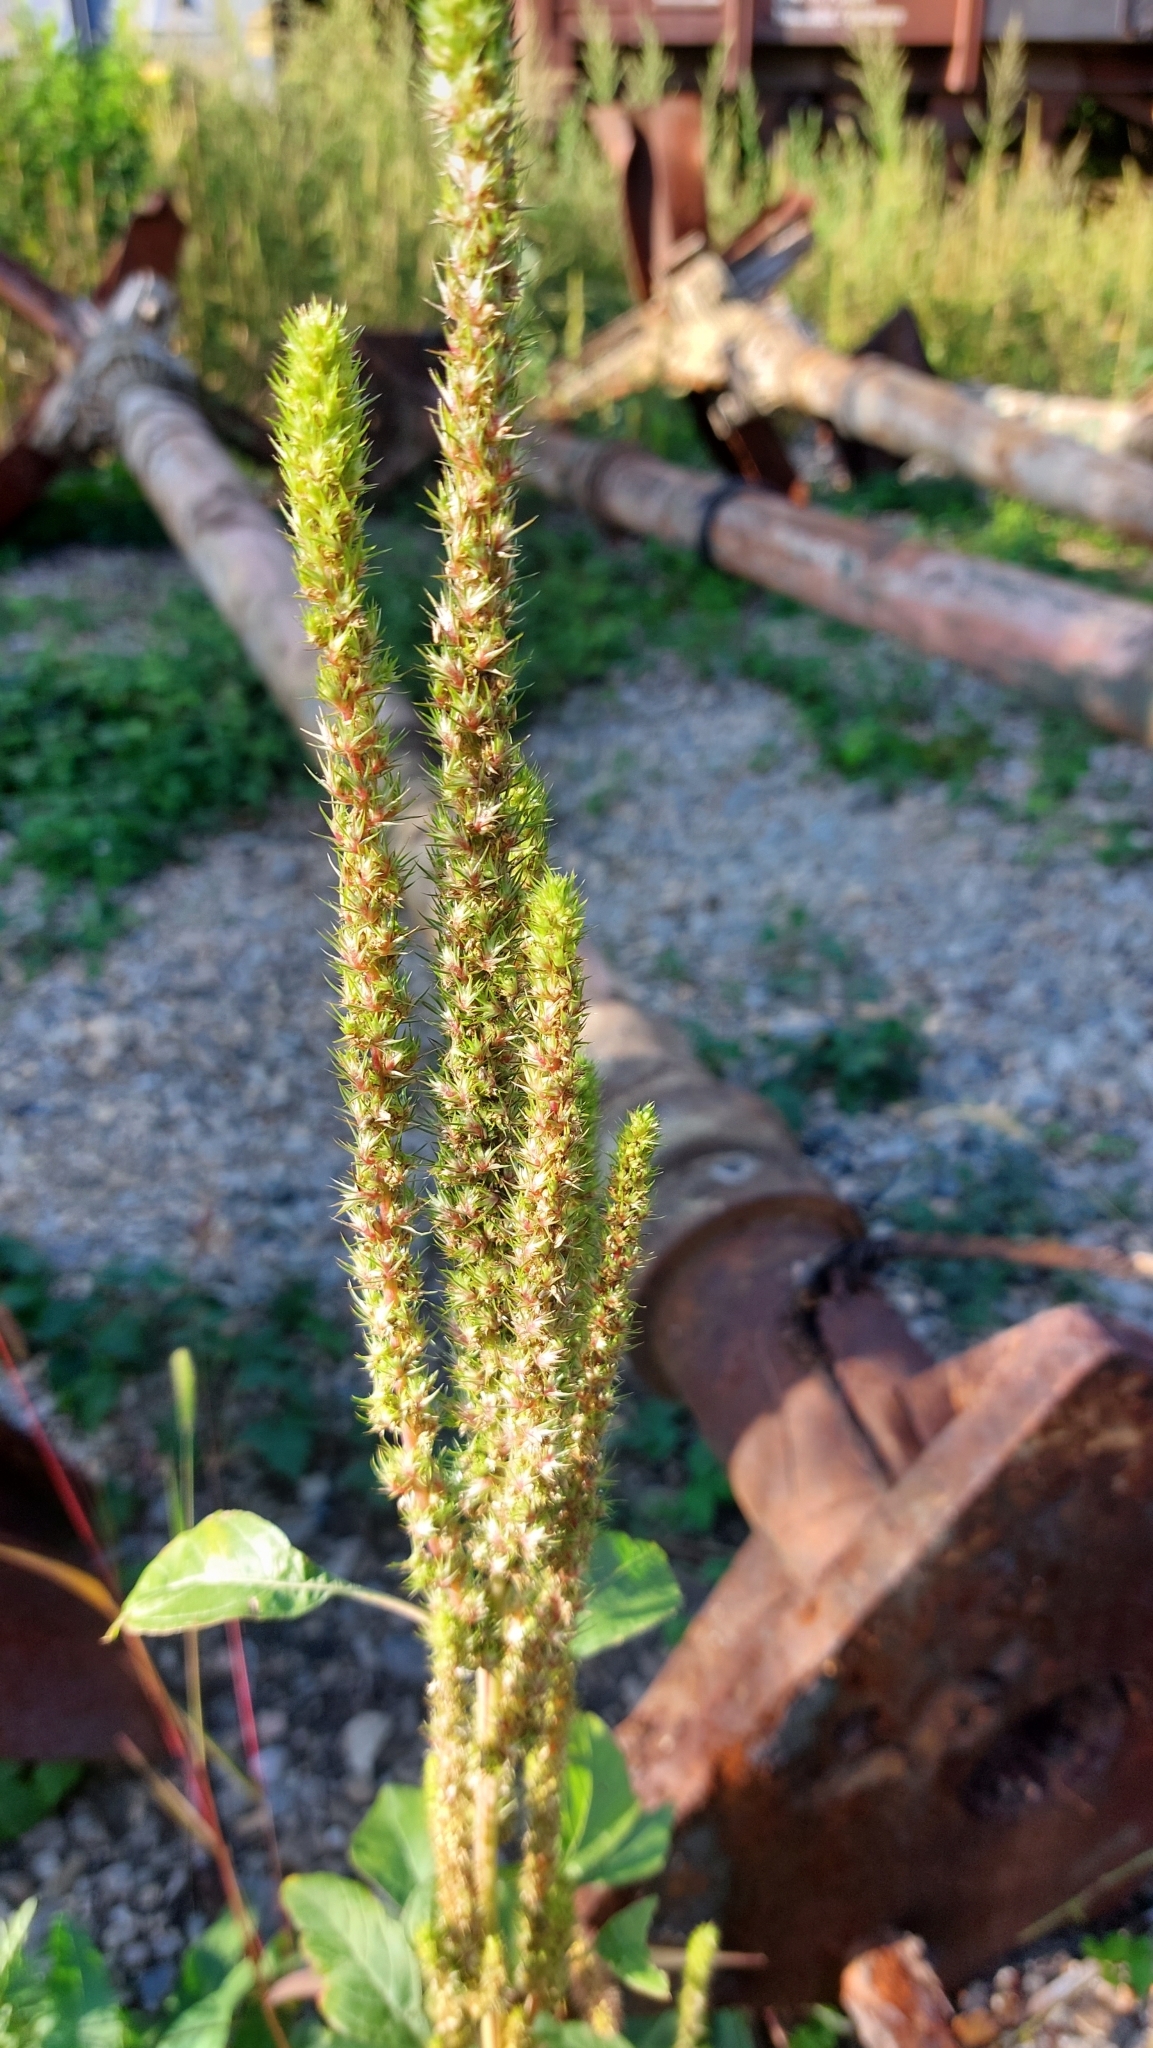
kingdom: Plantae
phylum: Tracheophyta
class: Magnoliopsida
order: Caryophyllales
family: Amaranthaceae
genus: Amaranthus
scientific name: Amaranthus powellii
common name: Powell's amaranth
